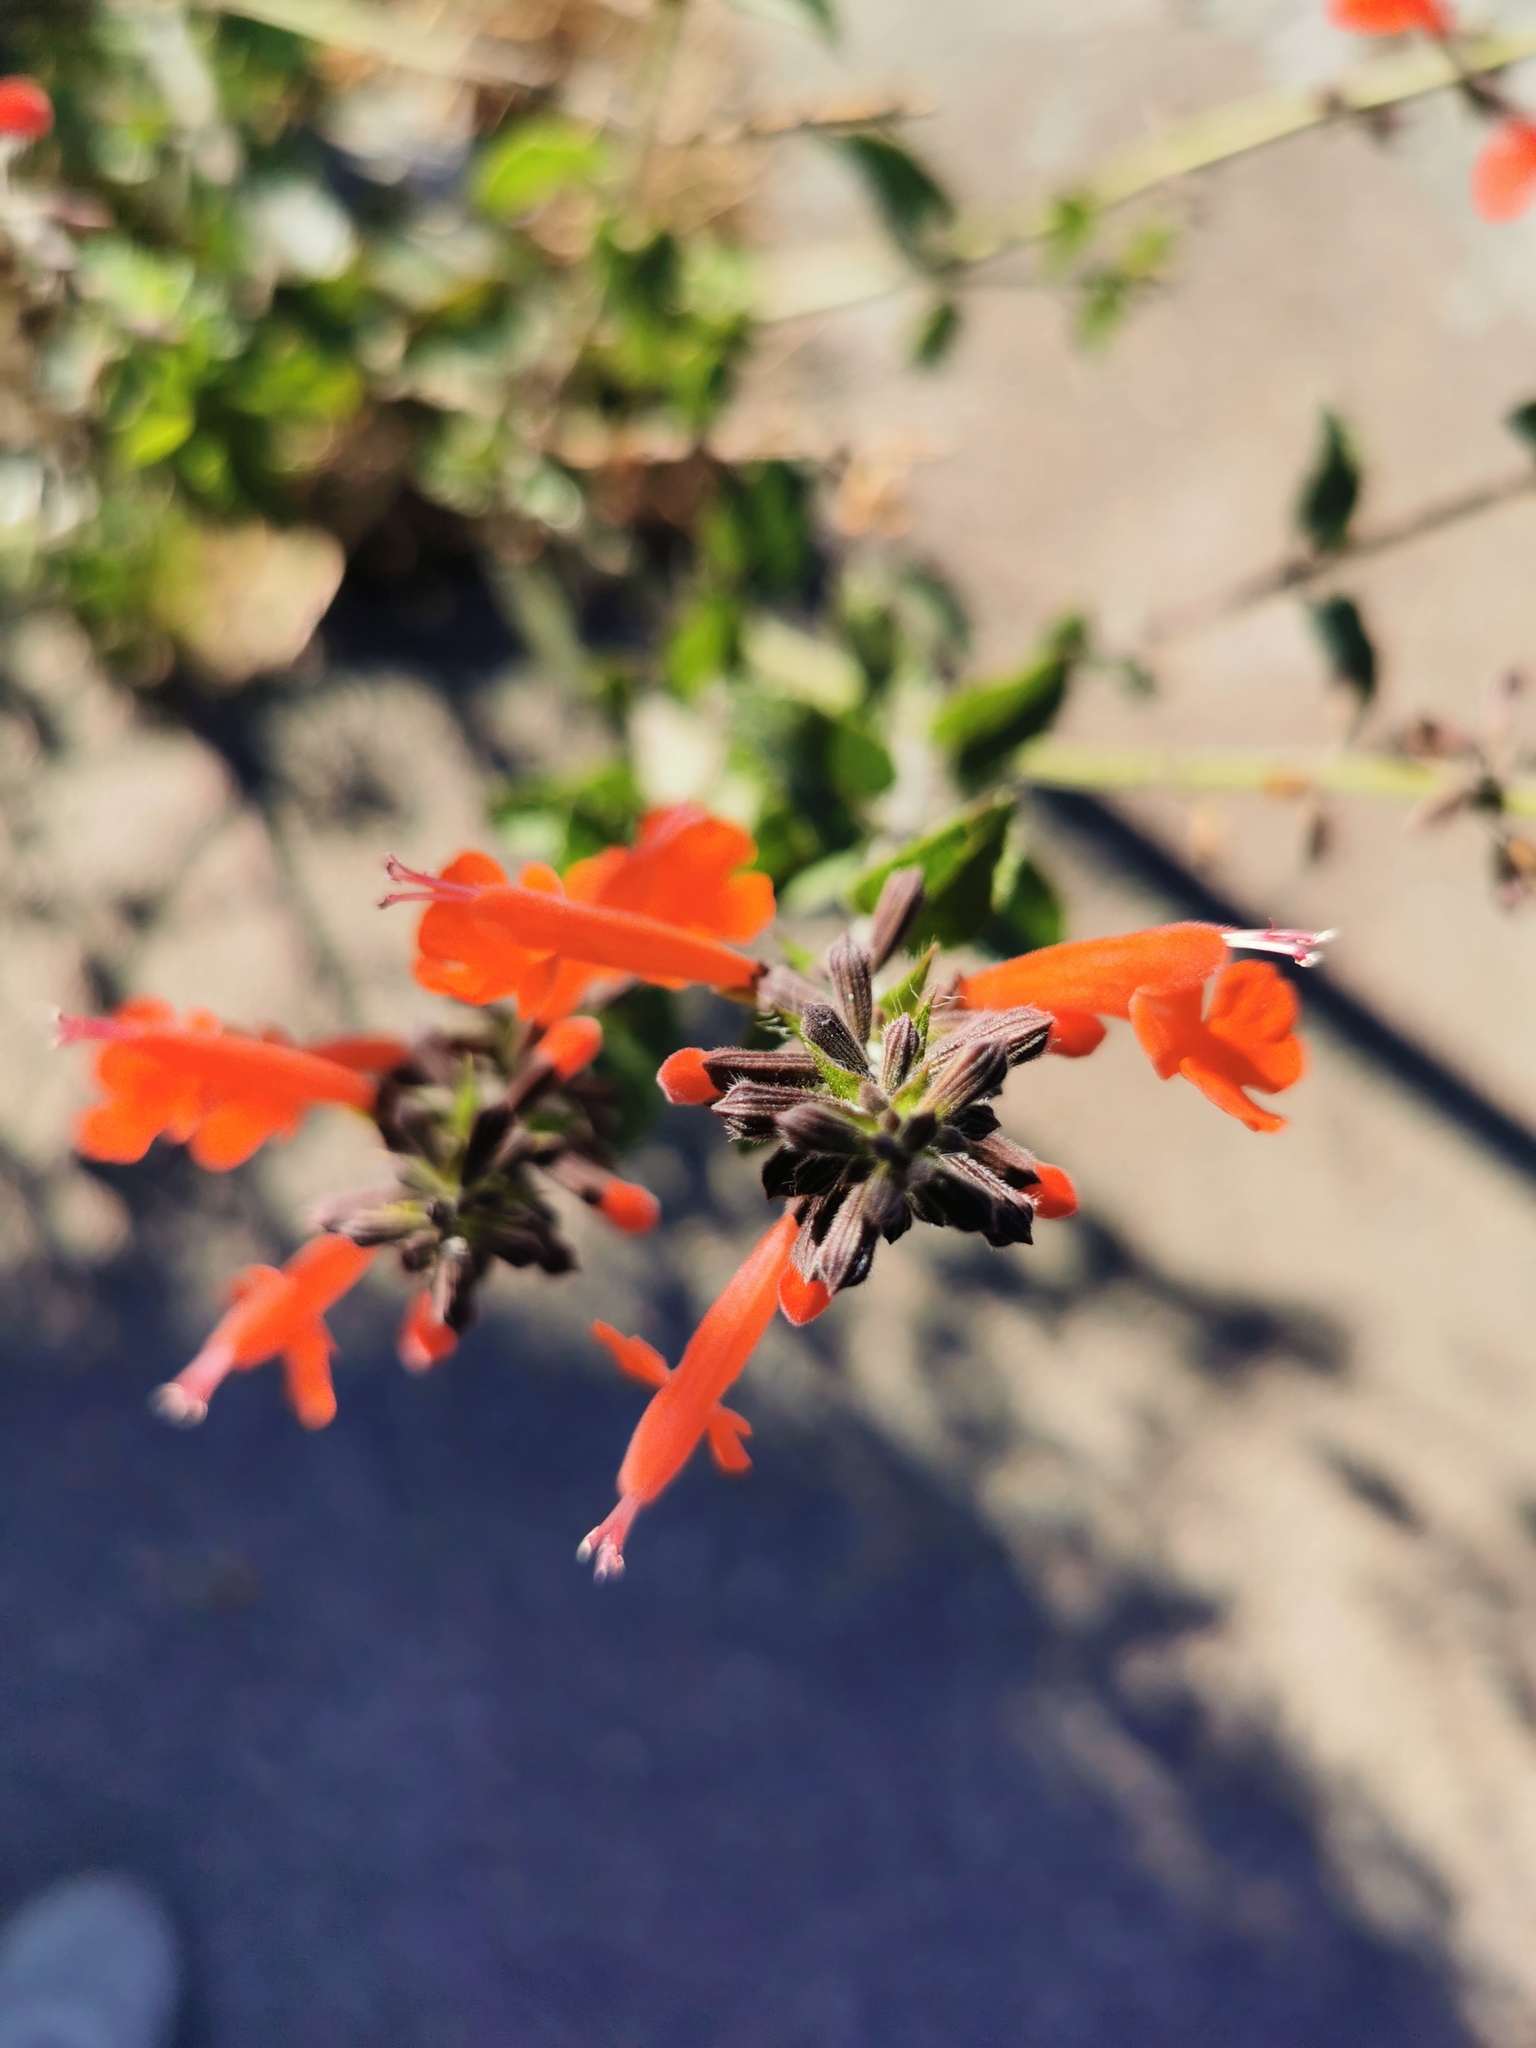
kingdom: Plantae
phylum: Tracheophyta
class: Magnoliopsida
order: Lamiales
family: Lamiaceae
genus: Salvia
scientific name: Salvia coccinea
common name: Blood sage
